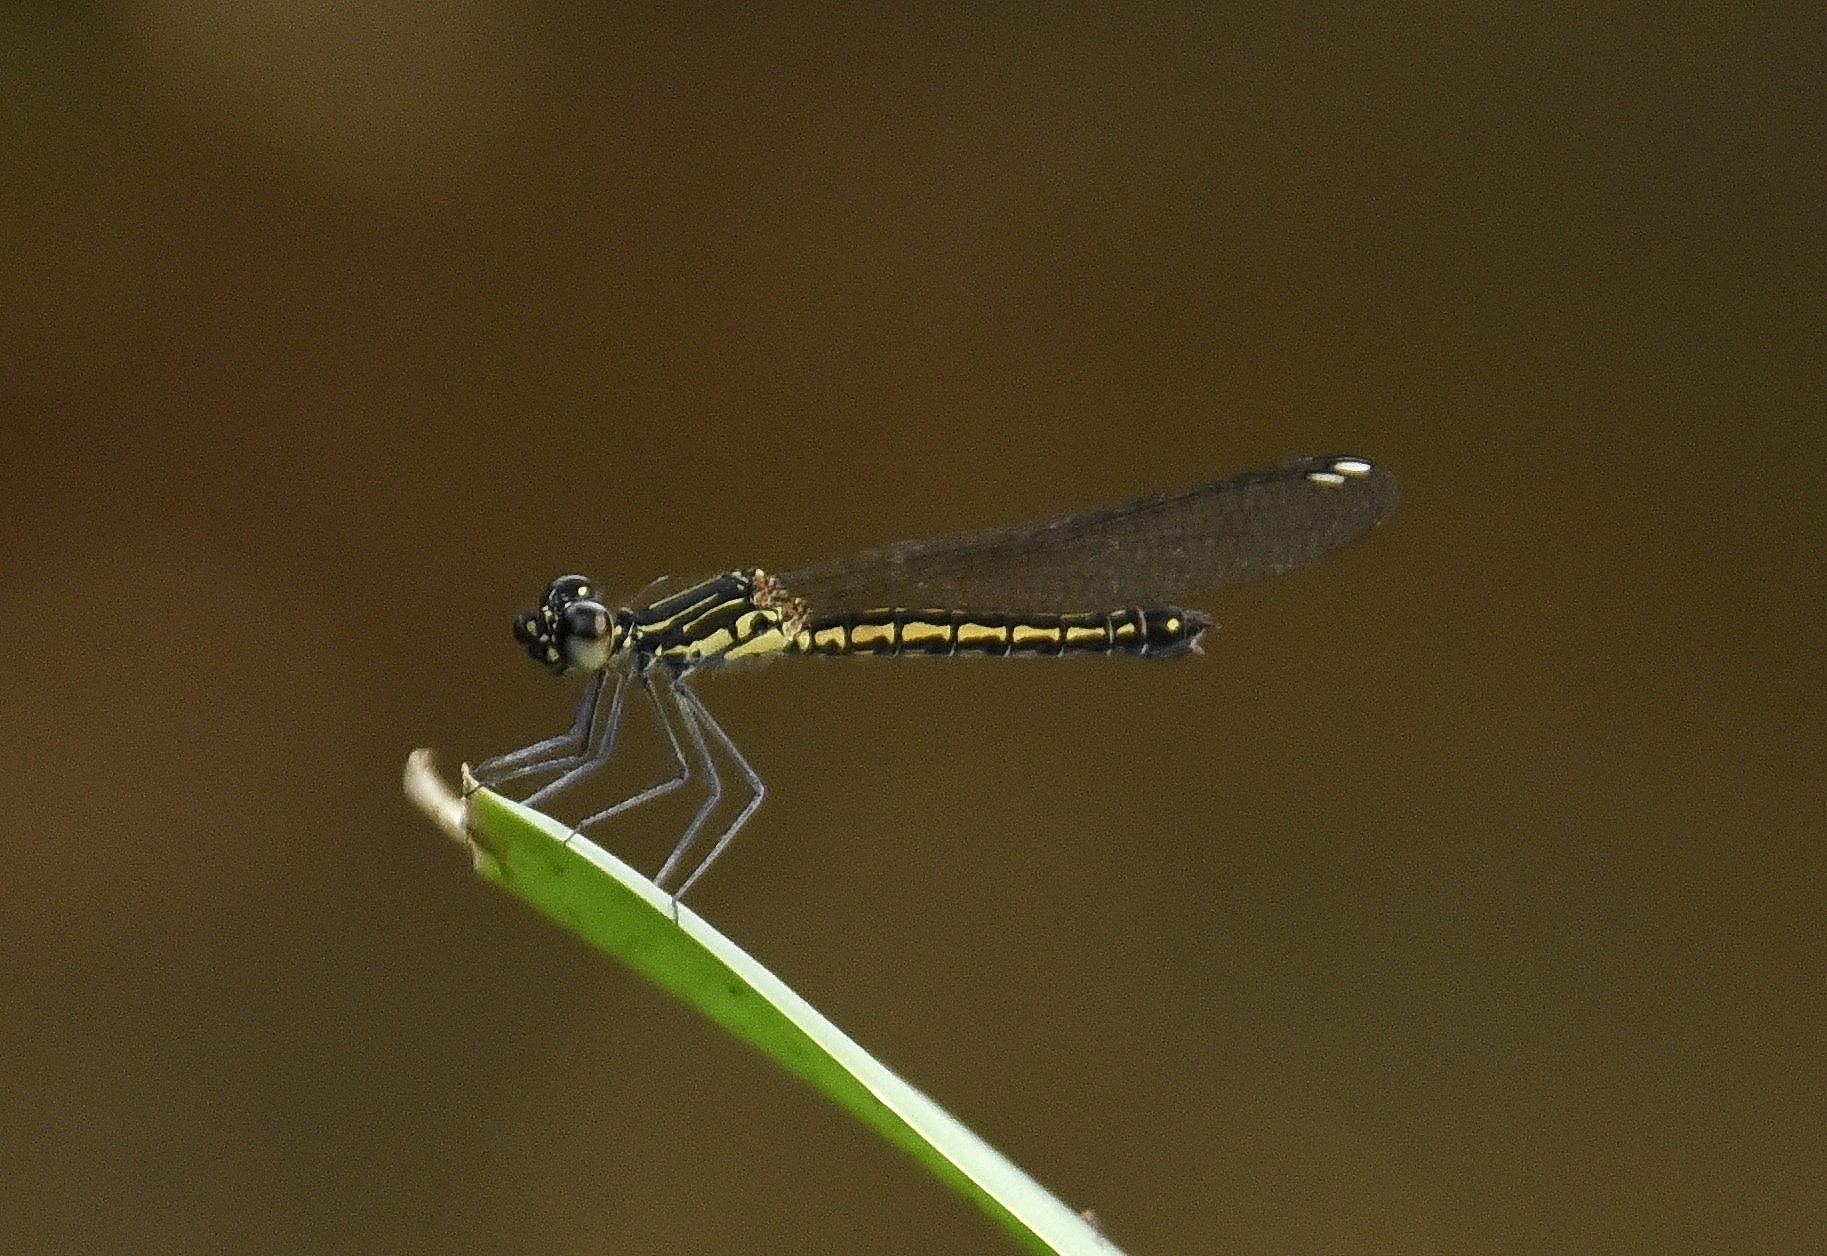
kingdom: Animalia
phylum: Arthropoda
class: Insecta
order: Odonata
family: Chlorocyphidae
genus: Libellago
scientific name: Libellago indica
